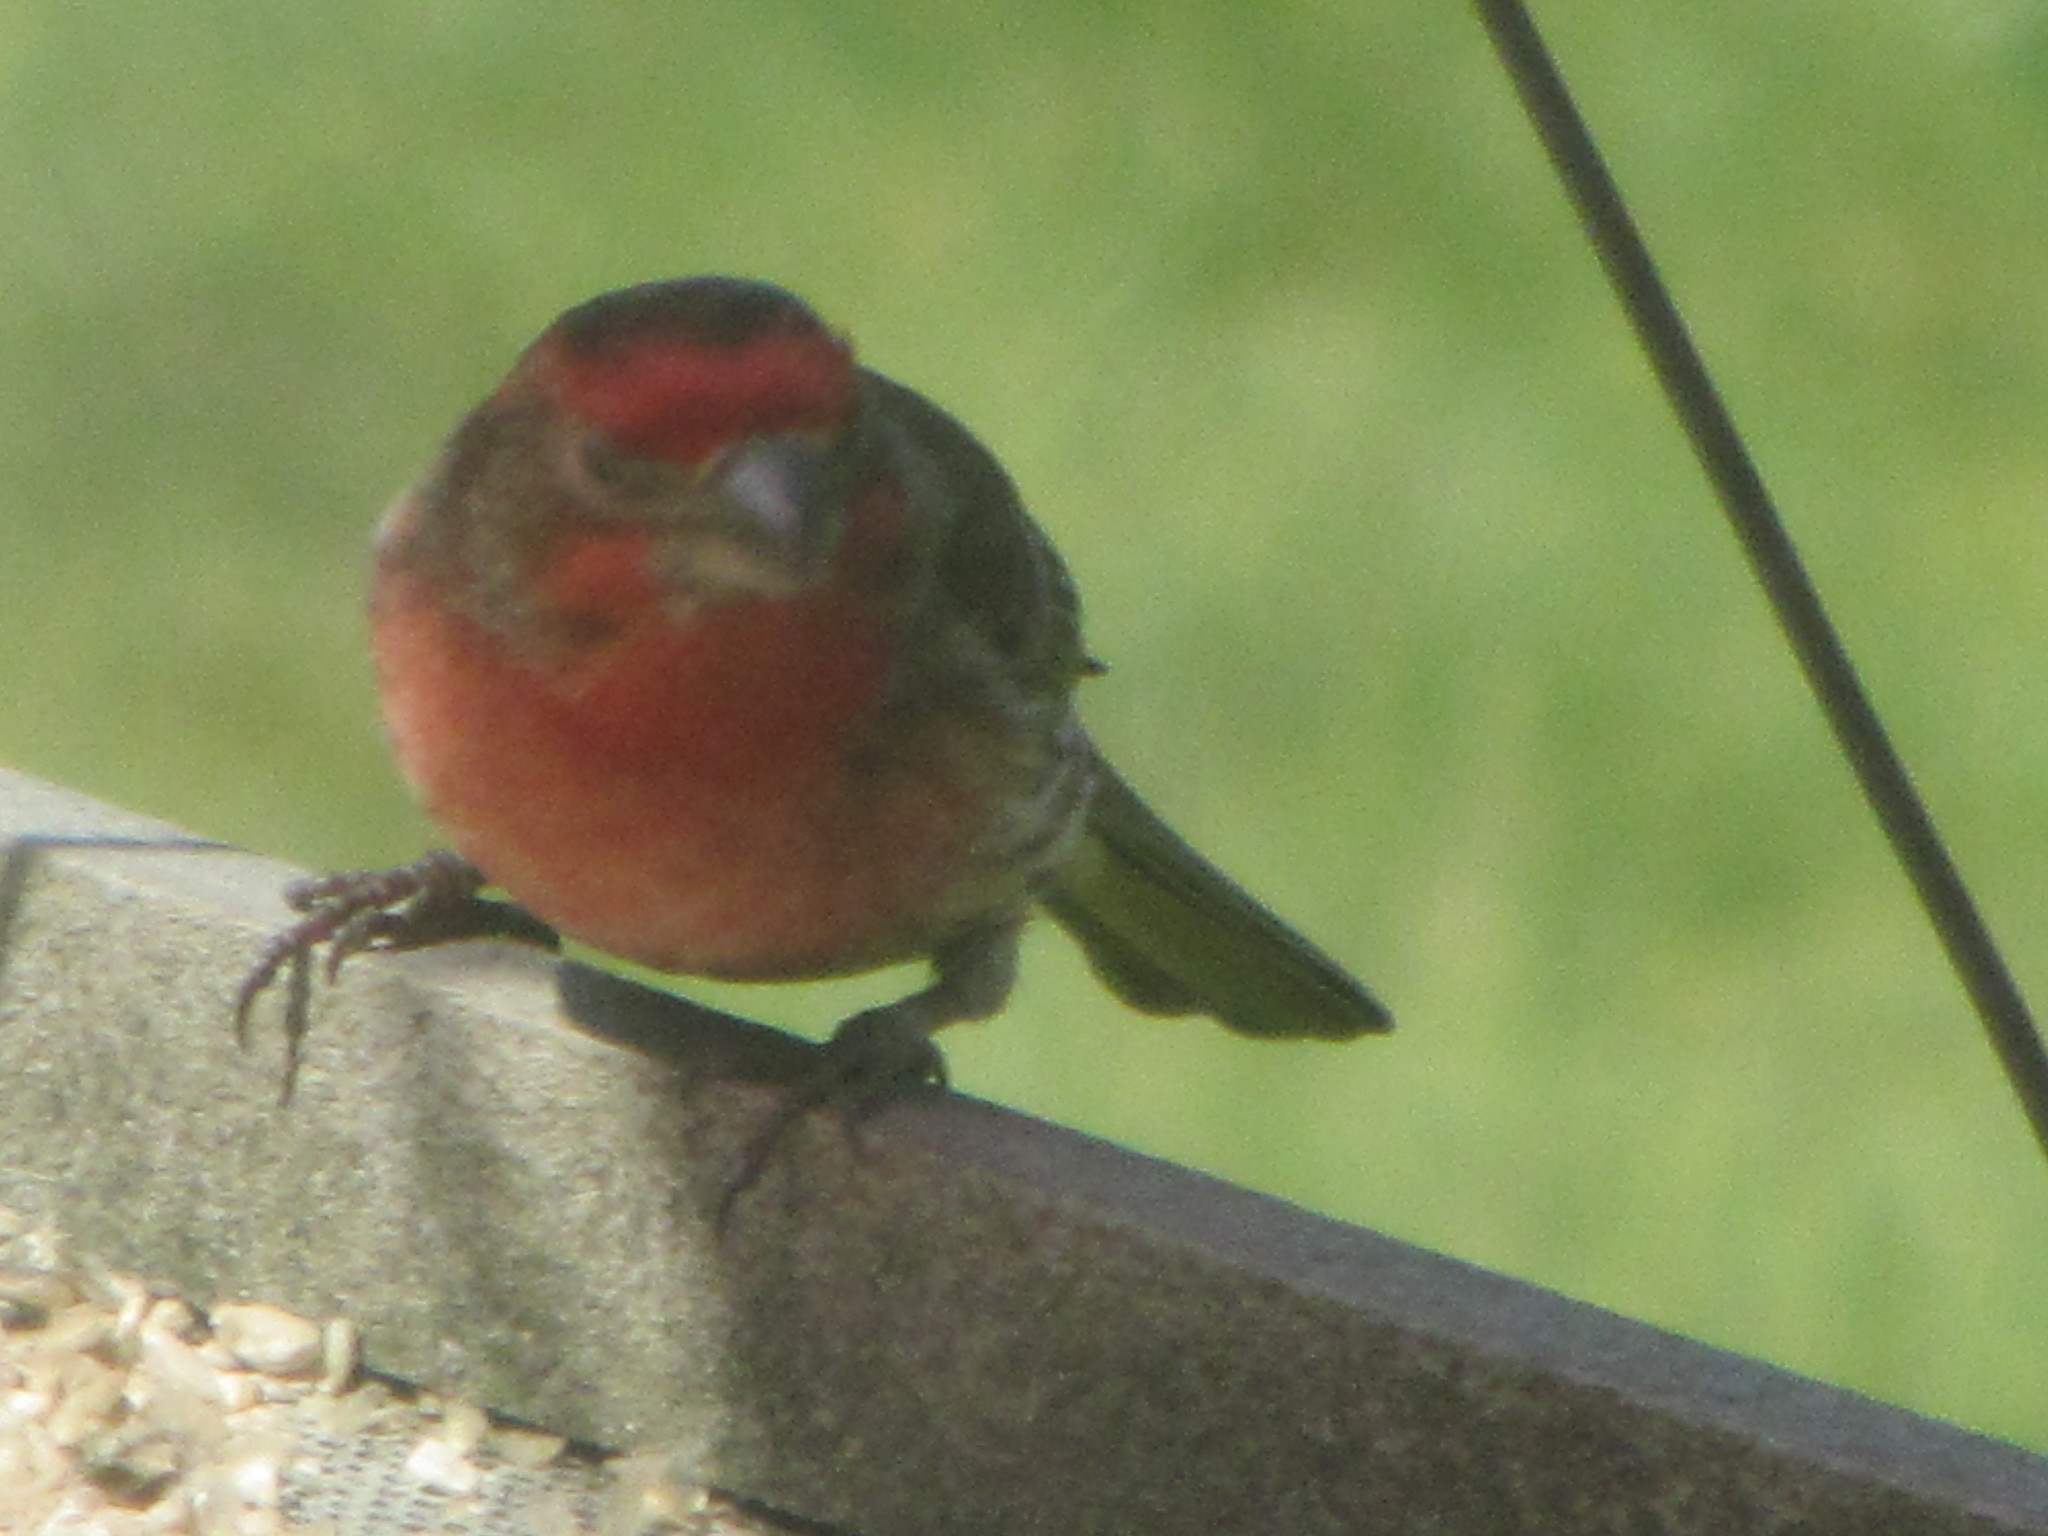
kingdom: Animalia
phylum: Chordata
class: Aves
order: Passeriformes
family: Fringillidae
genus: Haemorhous
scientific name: Haemorhous mexicanus
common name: House finch
